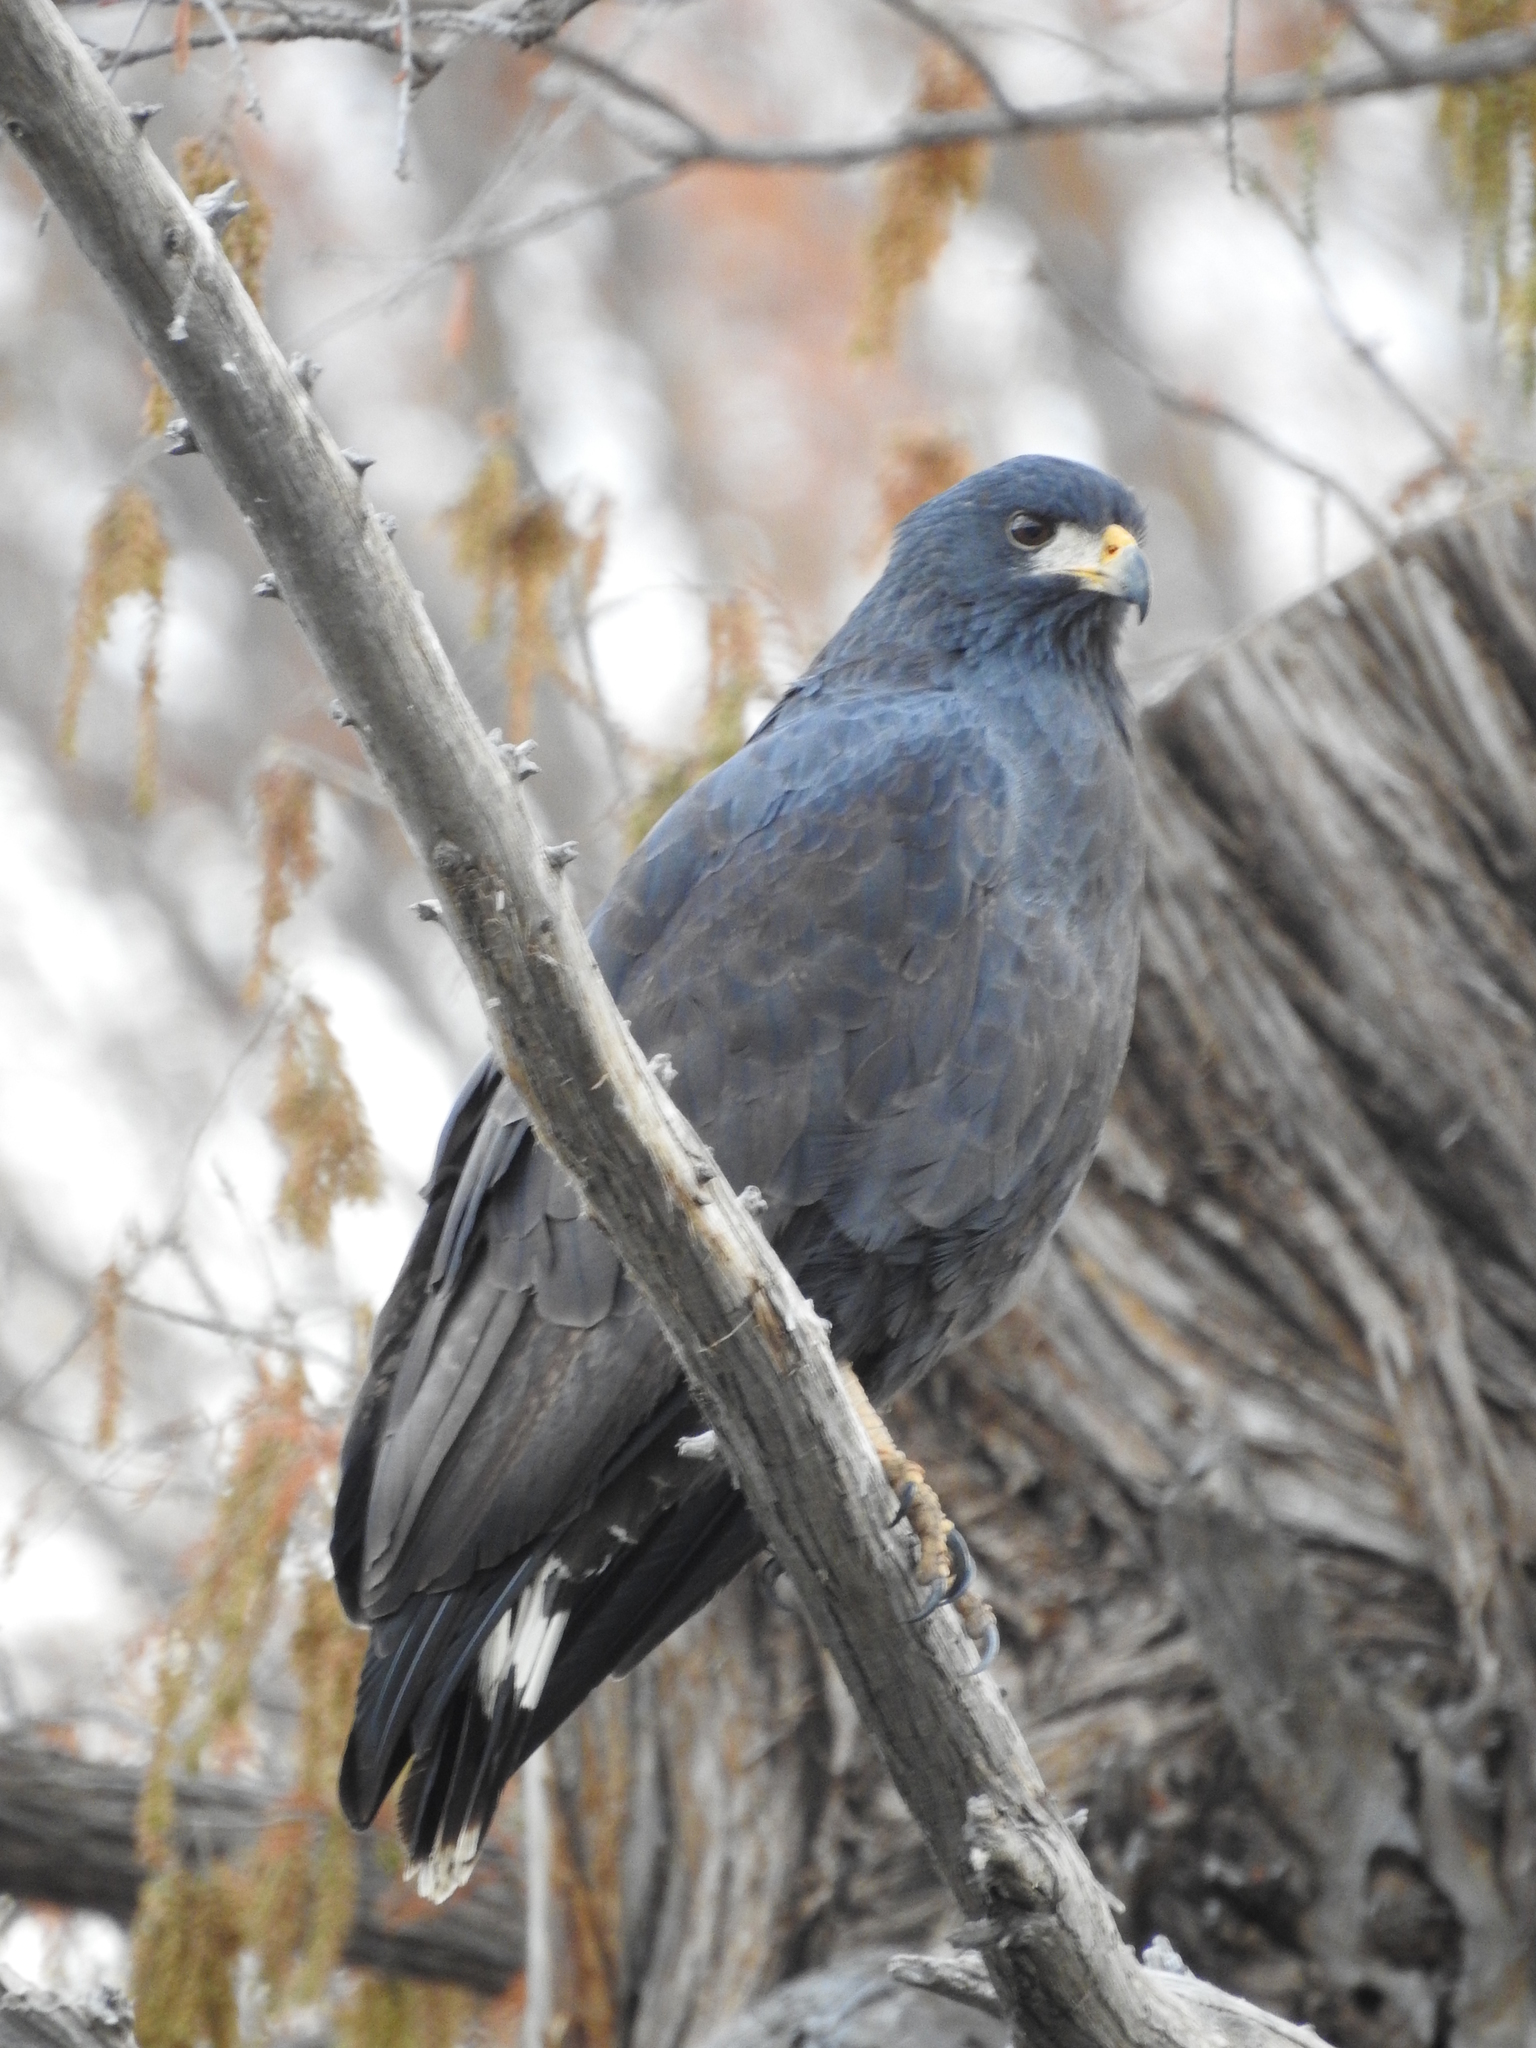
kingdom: Animalia
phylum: Chordata
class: Aves
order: Accipitriformes
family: Accipitridae
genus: Buteogallus
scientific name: Buteogallus anthracinus
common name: Common black hawk
